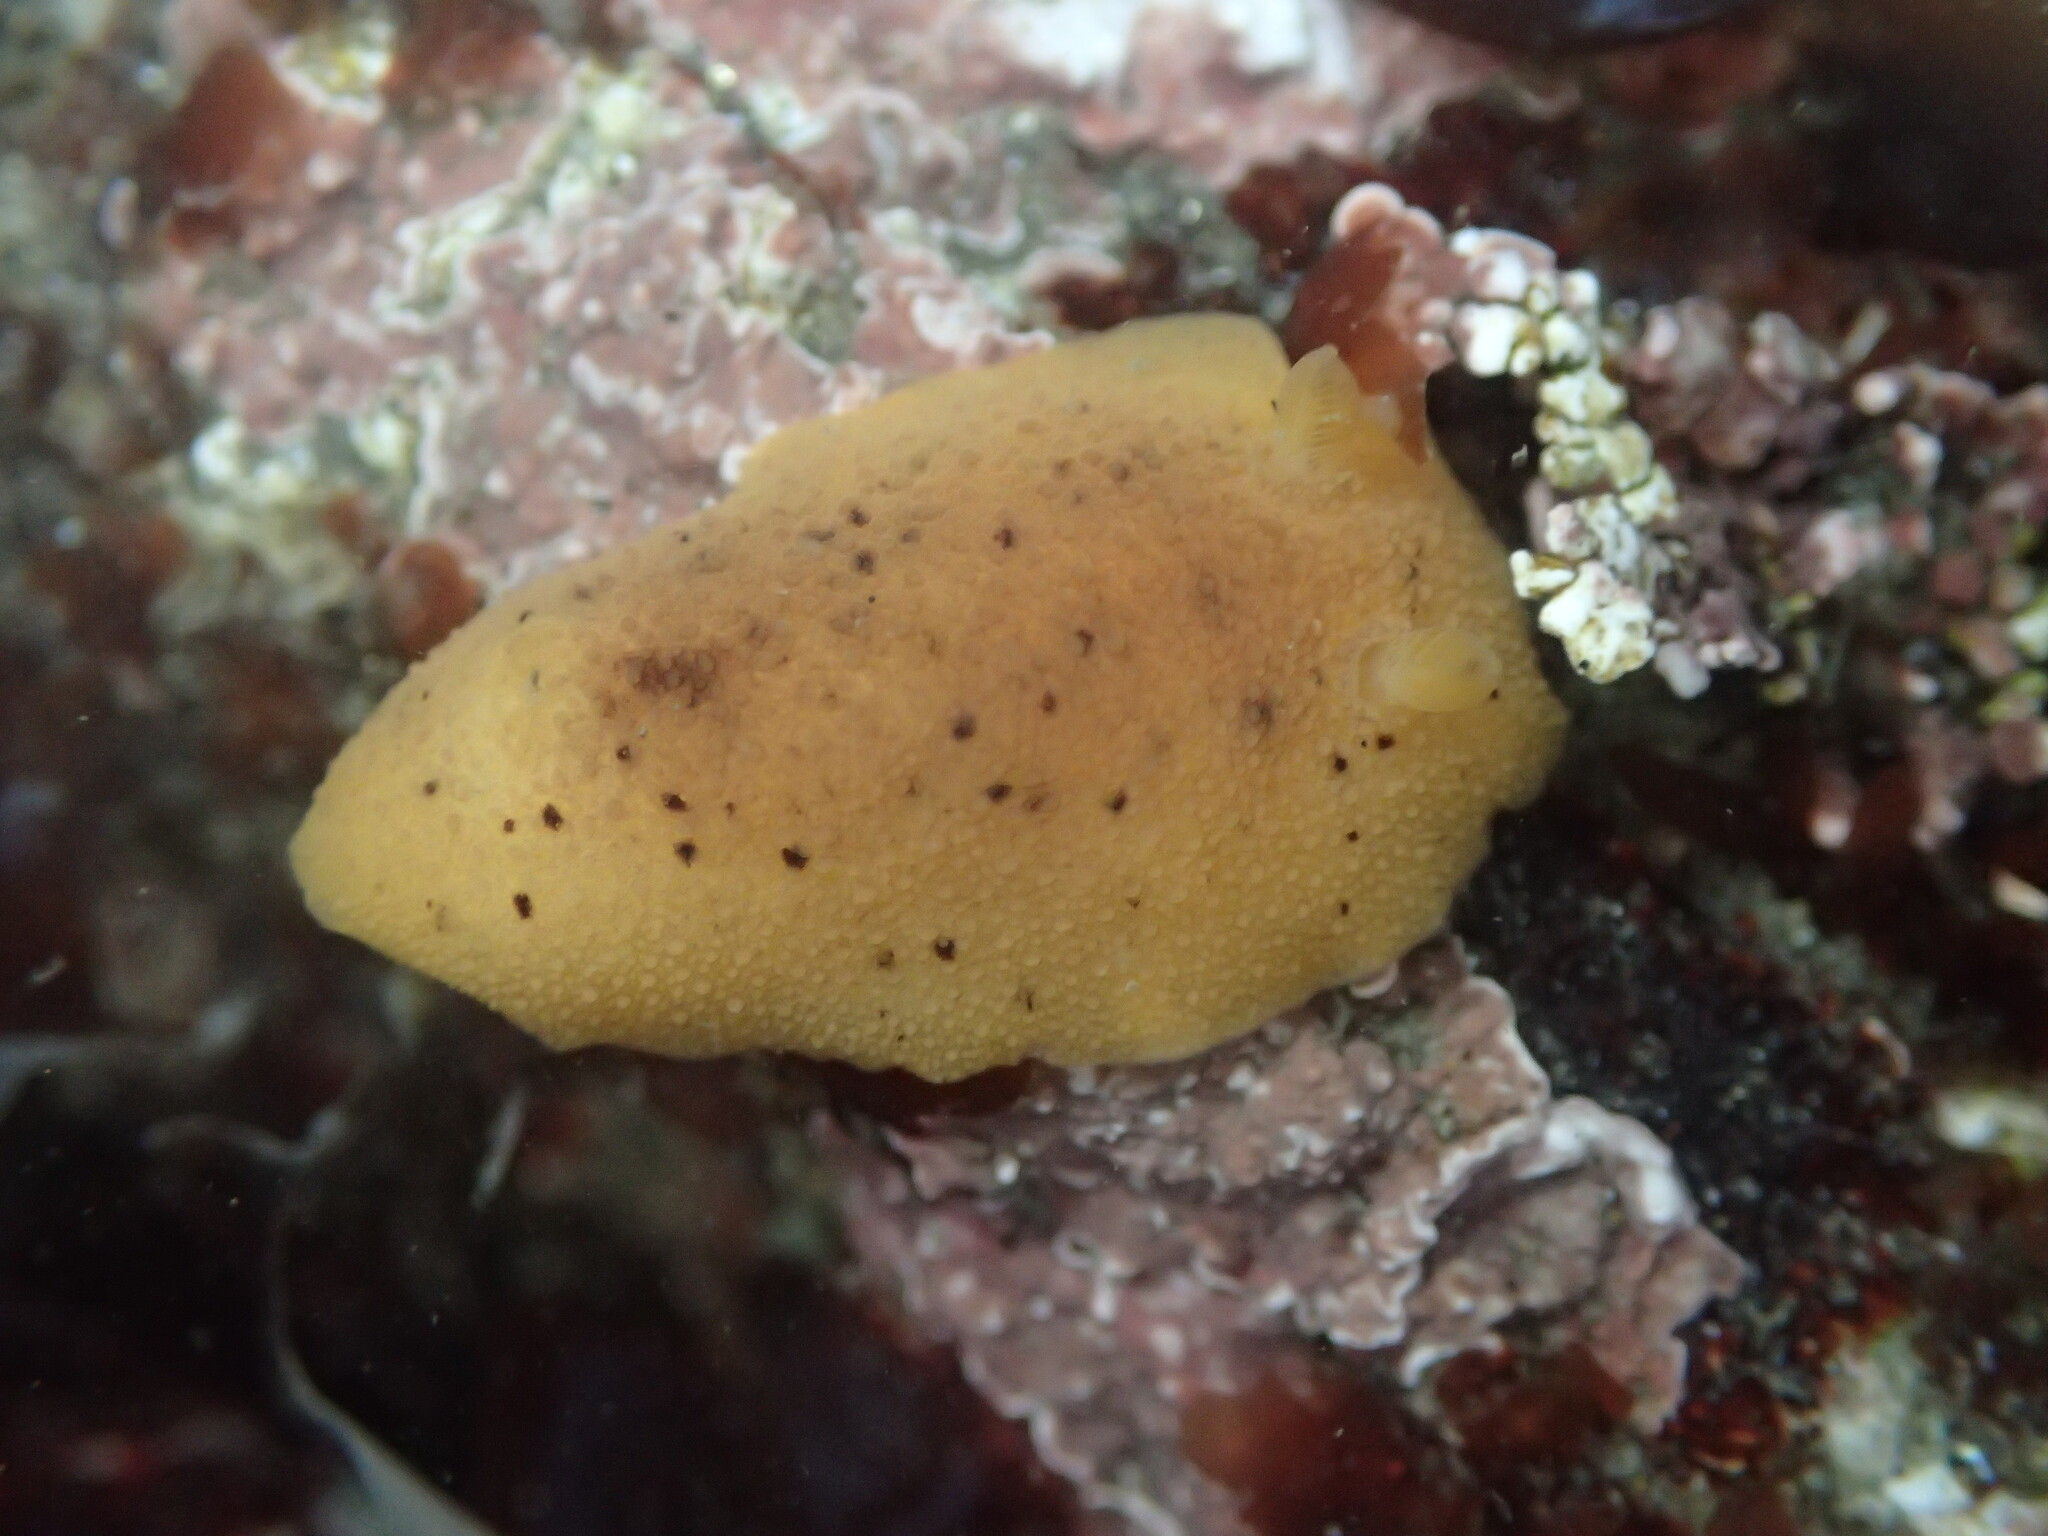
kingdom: Animalia
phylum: Mollusca
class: Gastropoda
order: Nudibranchia
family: Discodorididae
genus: Geitodoris
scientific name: Geitodoris heathi
